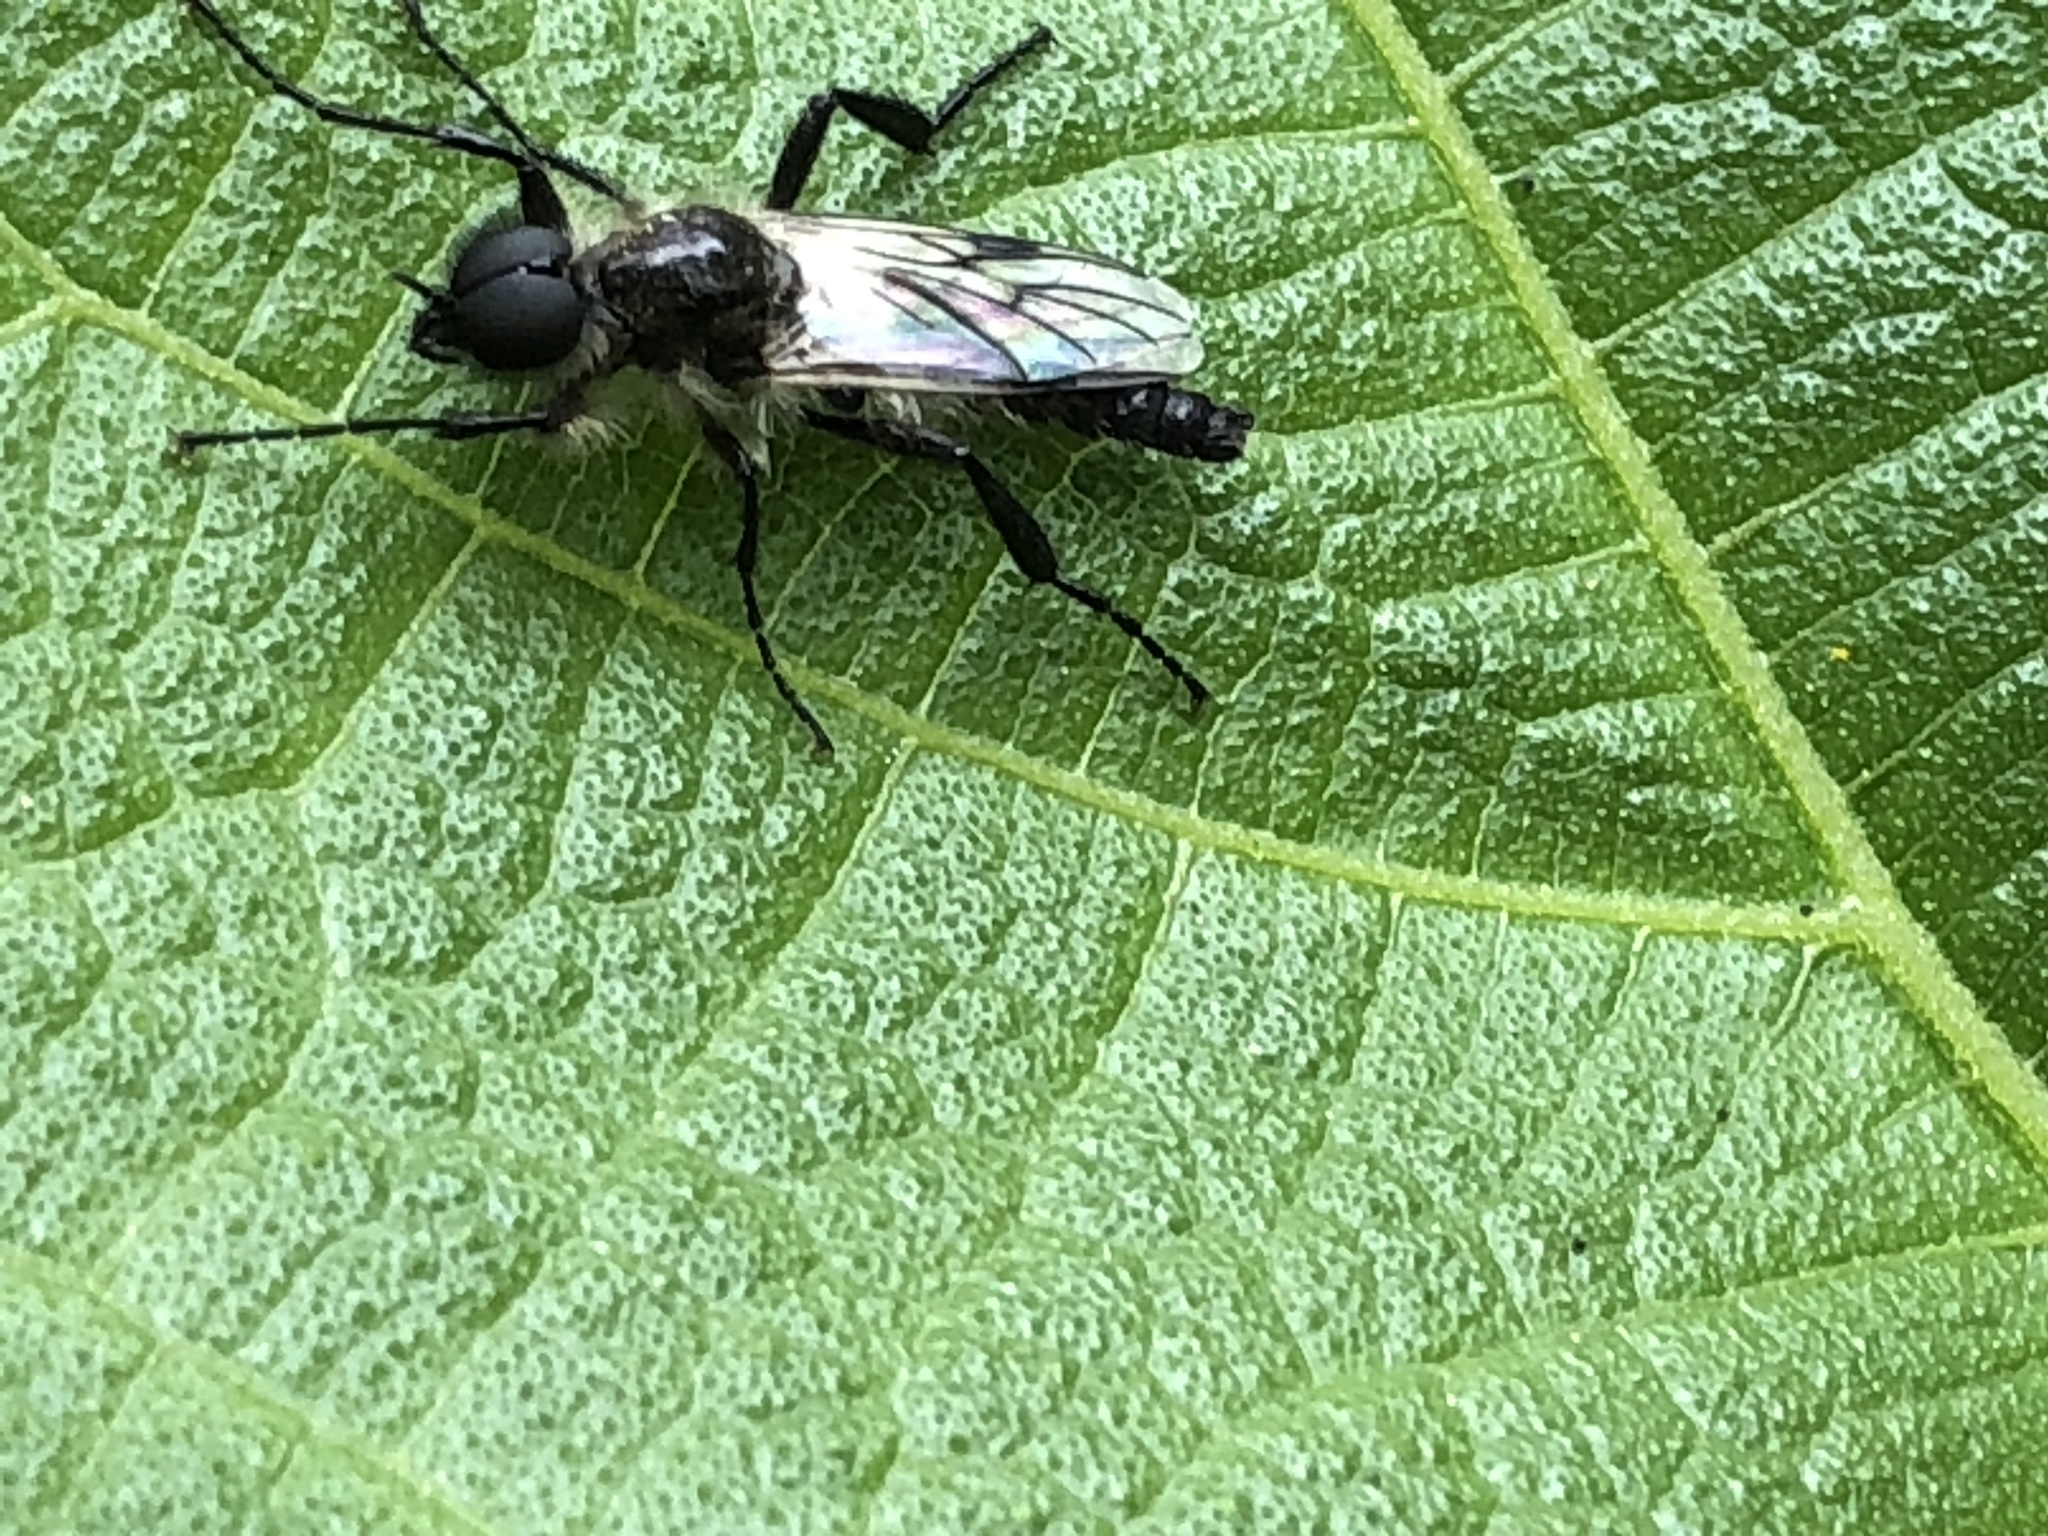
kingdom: Animalia
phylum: Arthropoda
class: Insecta
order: Diptera
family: Bibionidae
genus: Bibio
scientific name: Bibio albipennis
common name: White-winged march fly
